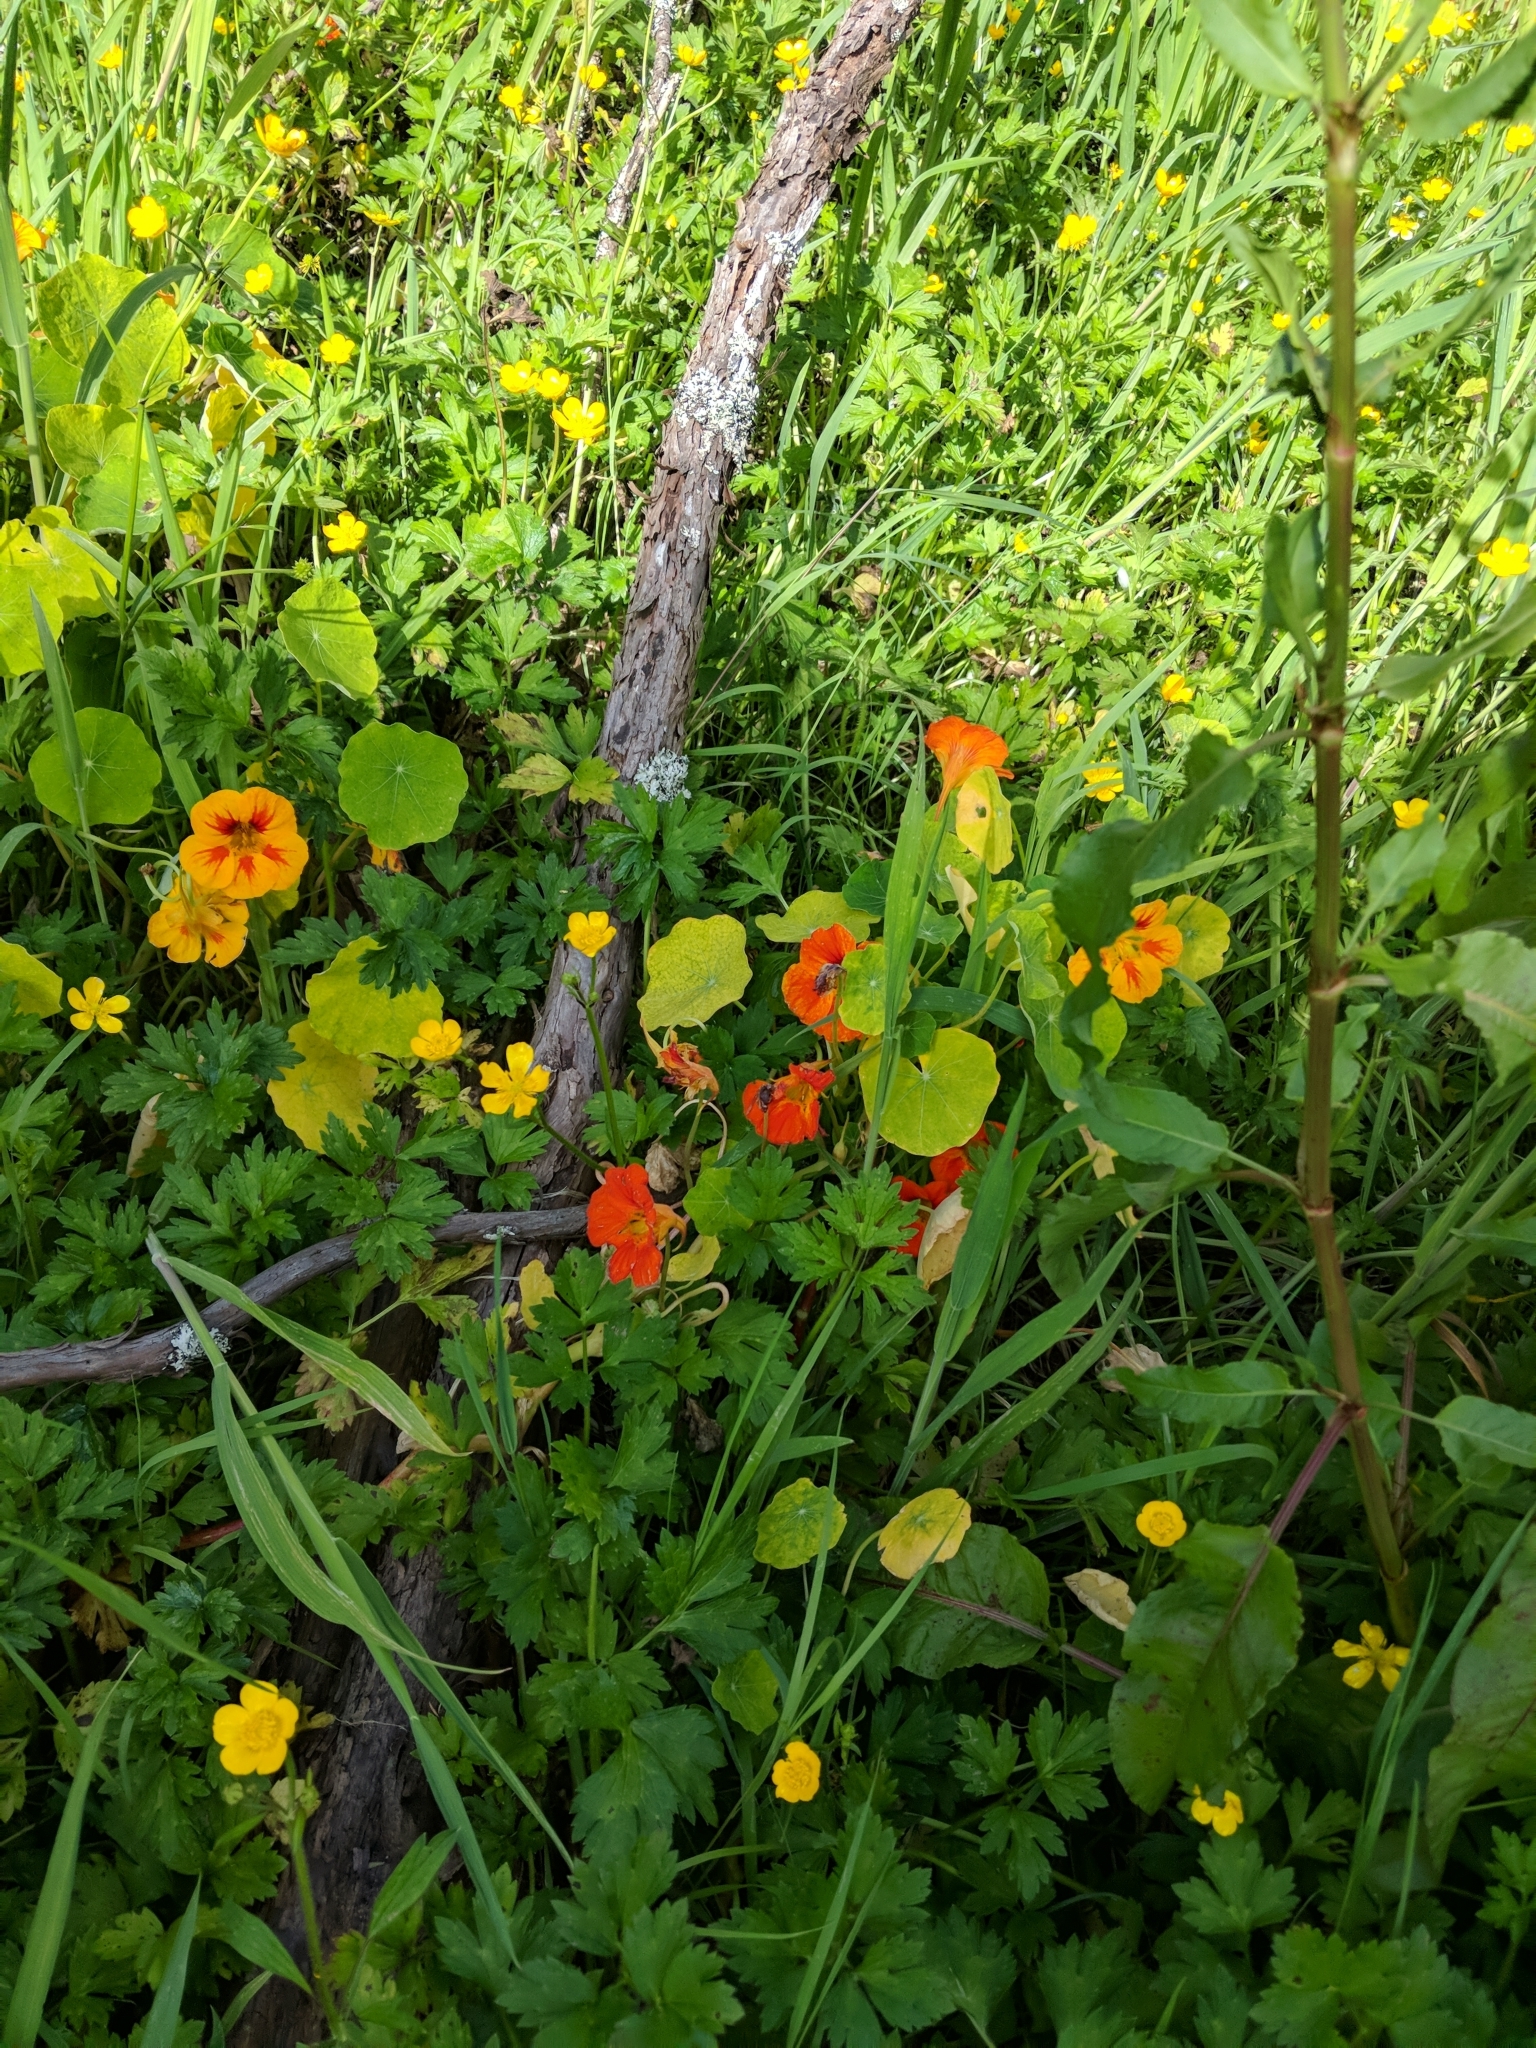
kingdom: Plantae
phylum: Tracheophyta
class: Magnoliopsida
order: Brassicales
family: Tropaeolaceae
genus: Tropaeolum
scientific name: Tropaeolum majus
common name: Nasturtium
